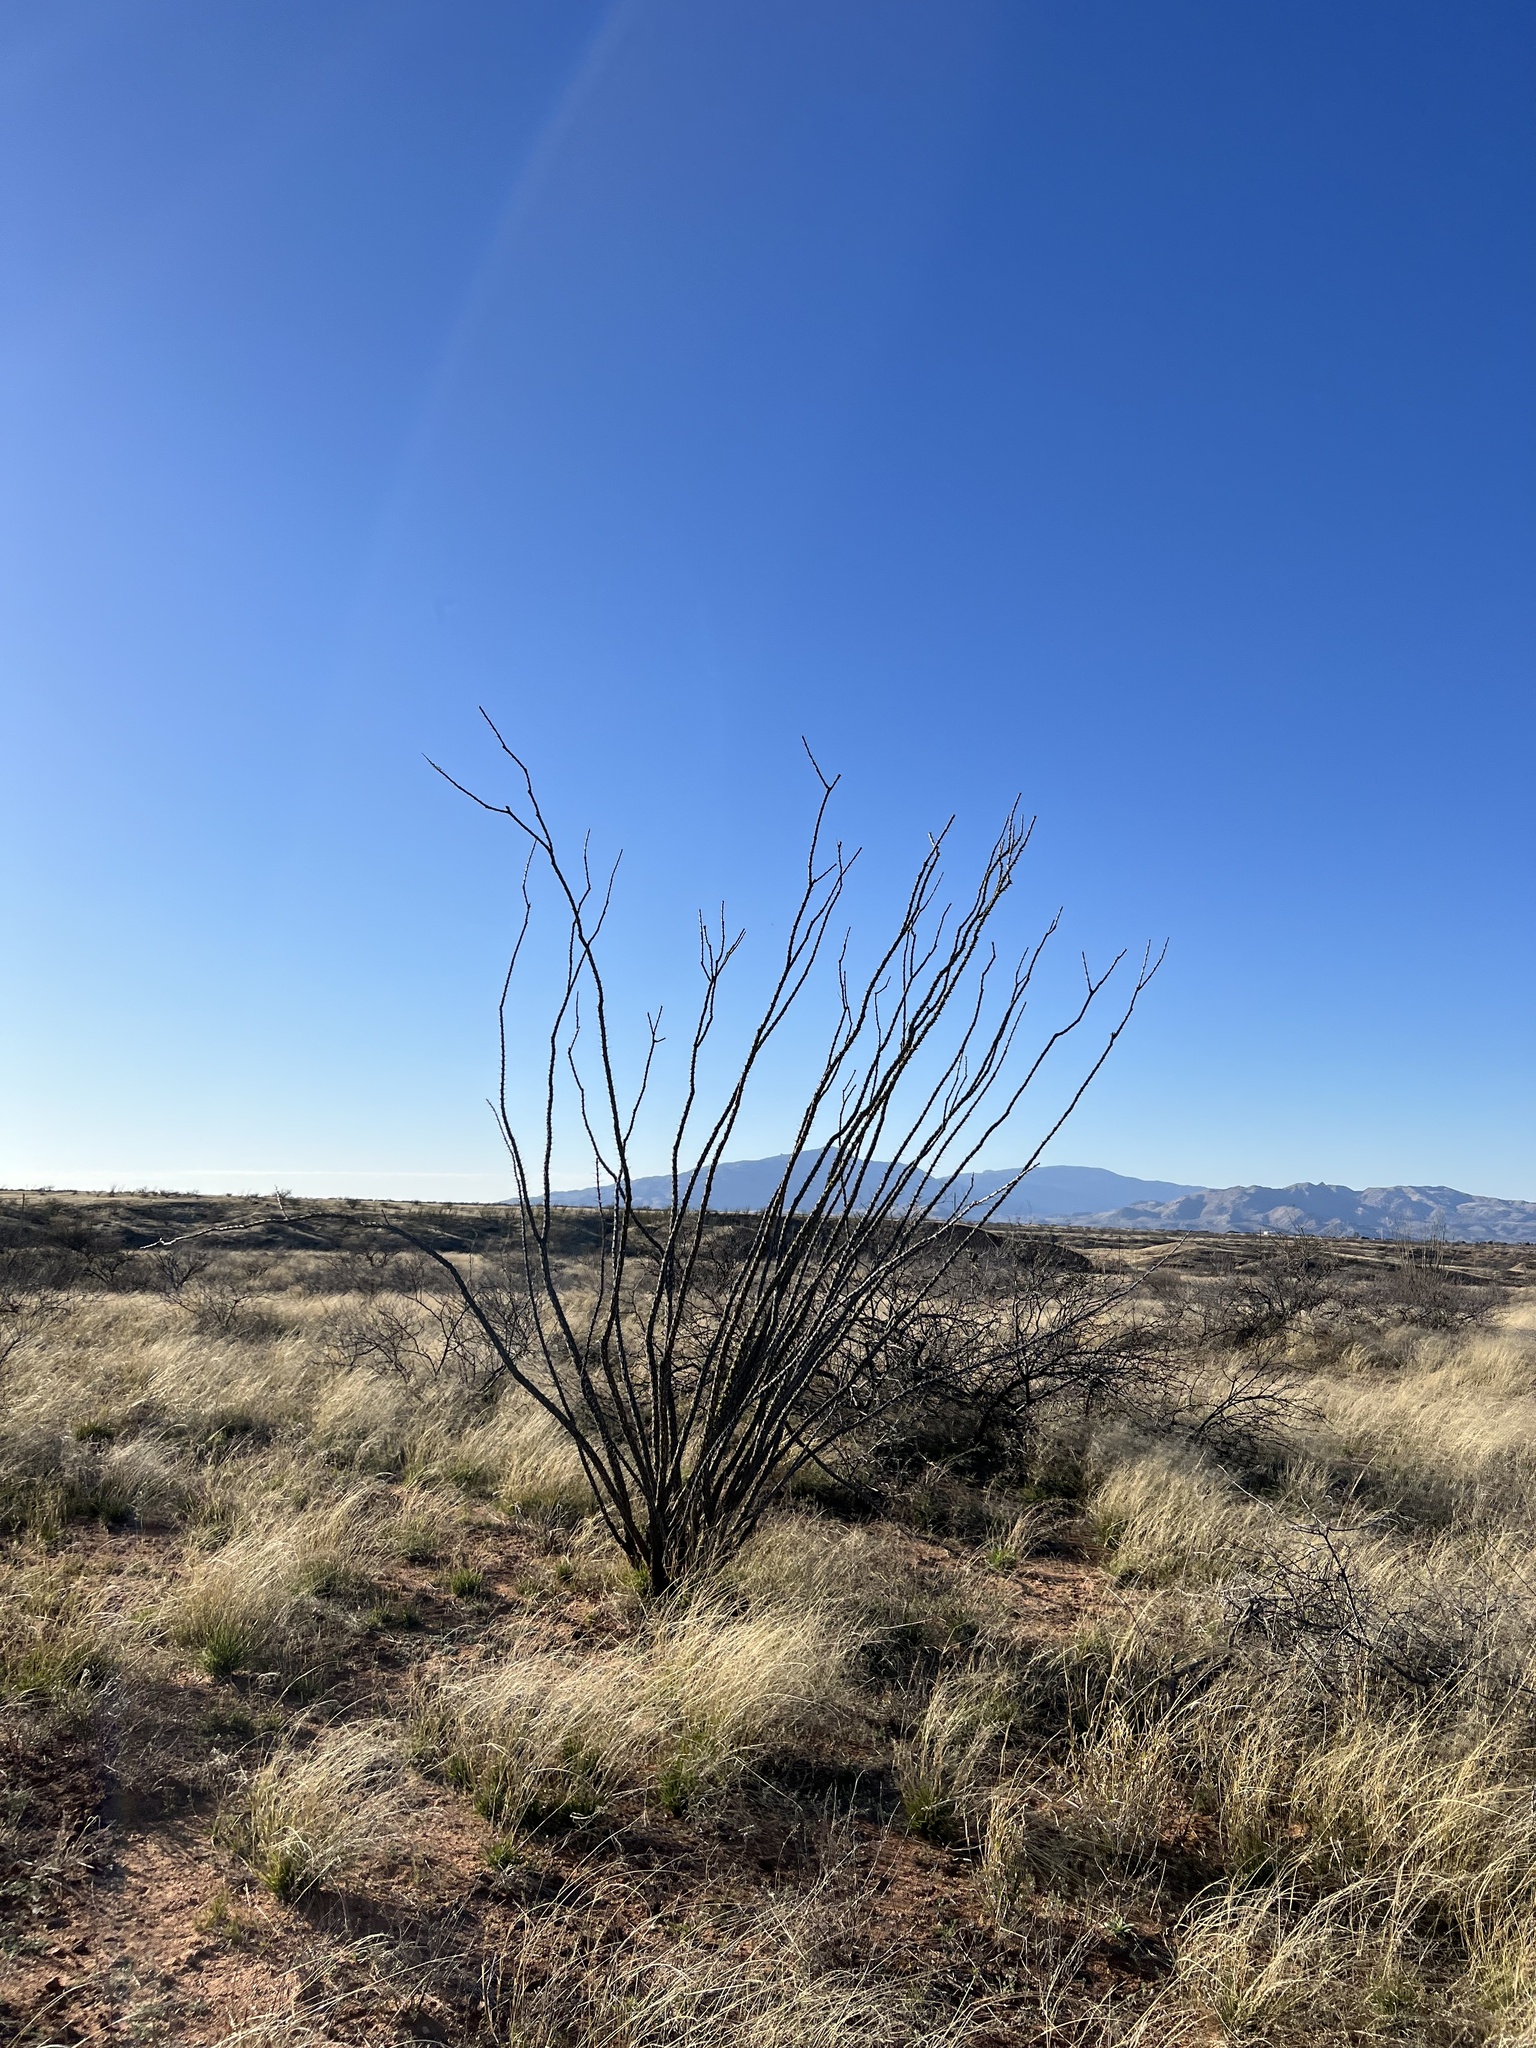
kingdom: Plantae
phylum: Tracheophyta
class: Magnoliopsida
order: Ericales
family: Fouquieriaceae
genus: Fouquieria
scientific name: Fouquieria splendens
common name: Vine-cactus
